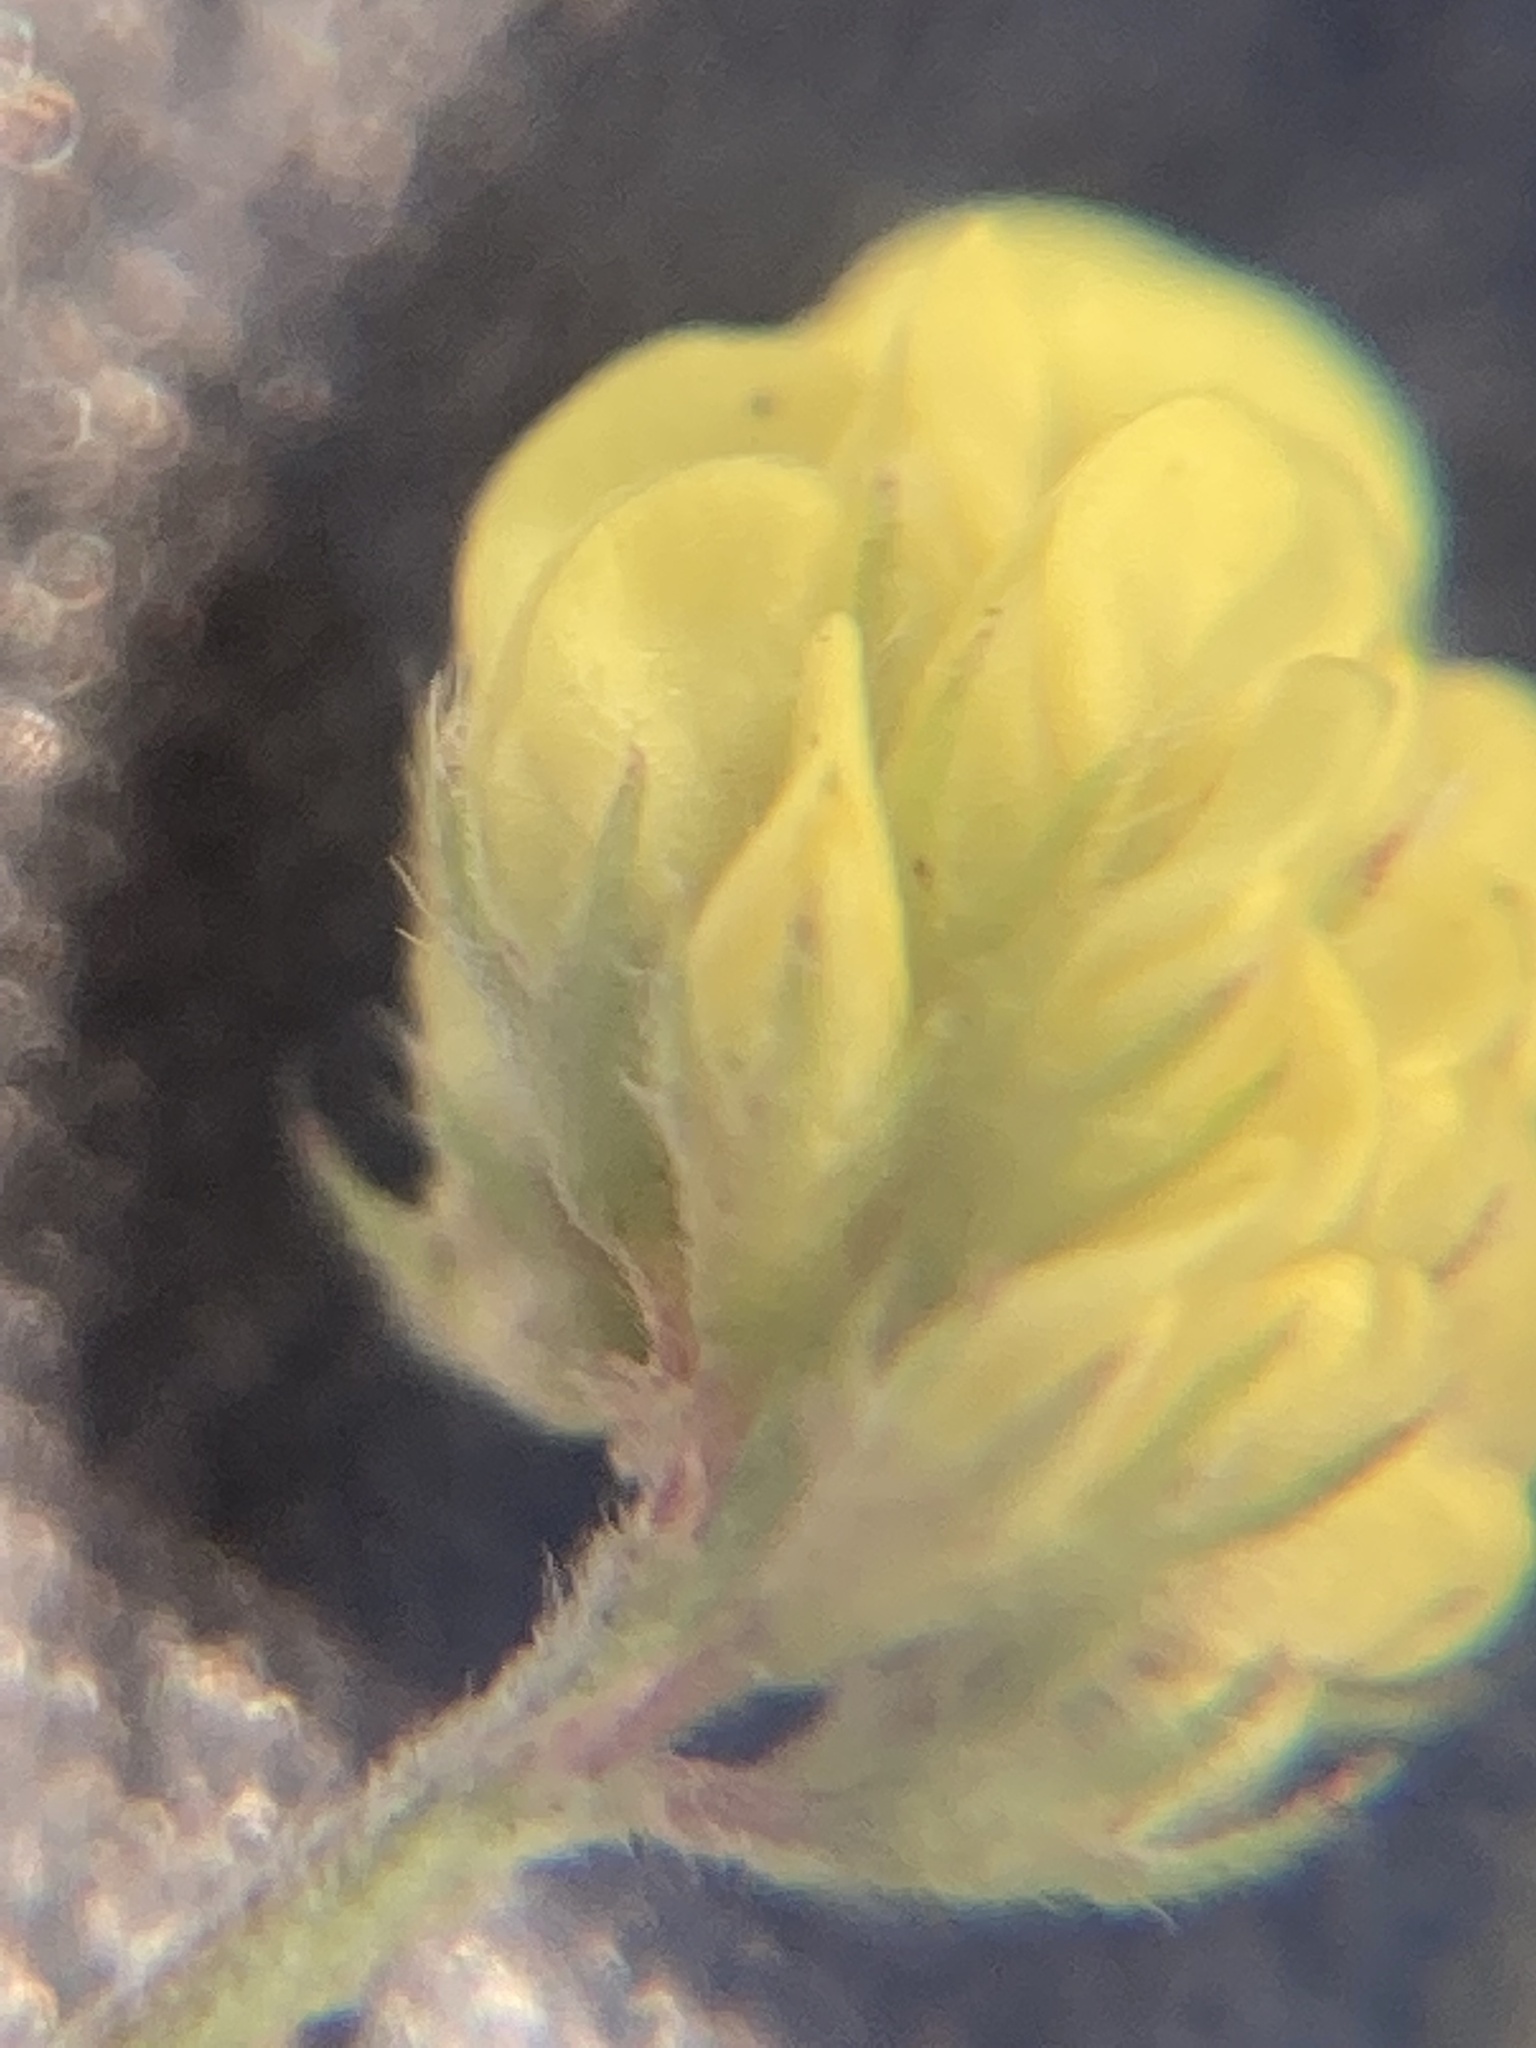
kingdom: Plantae
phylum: Tracheophyta
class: Magnoliopsida
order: Fabales
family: Fabaceae
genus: Medicago
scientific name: Medicago lupulina
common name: Black medick
